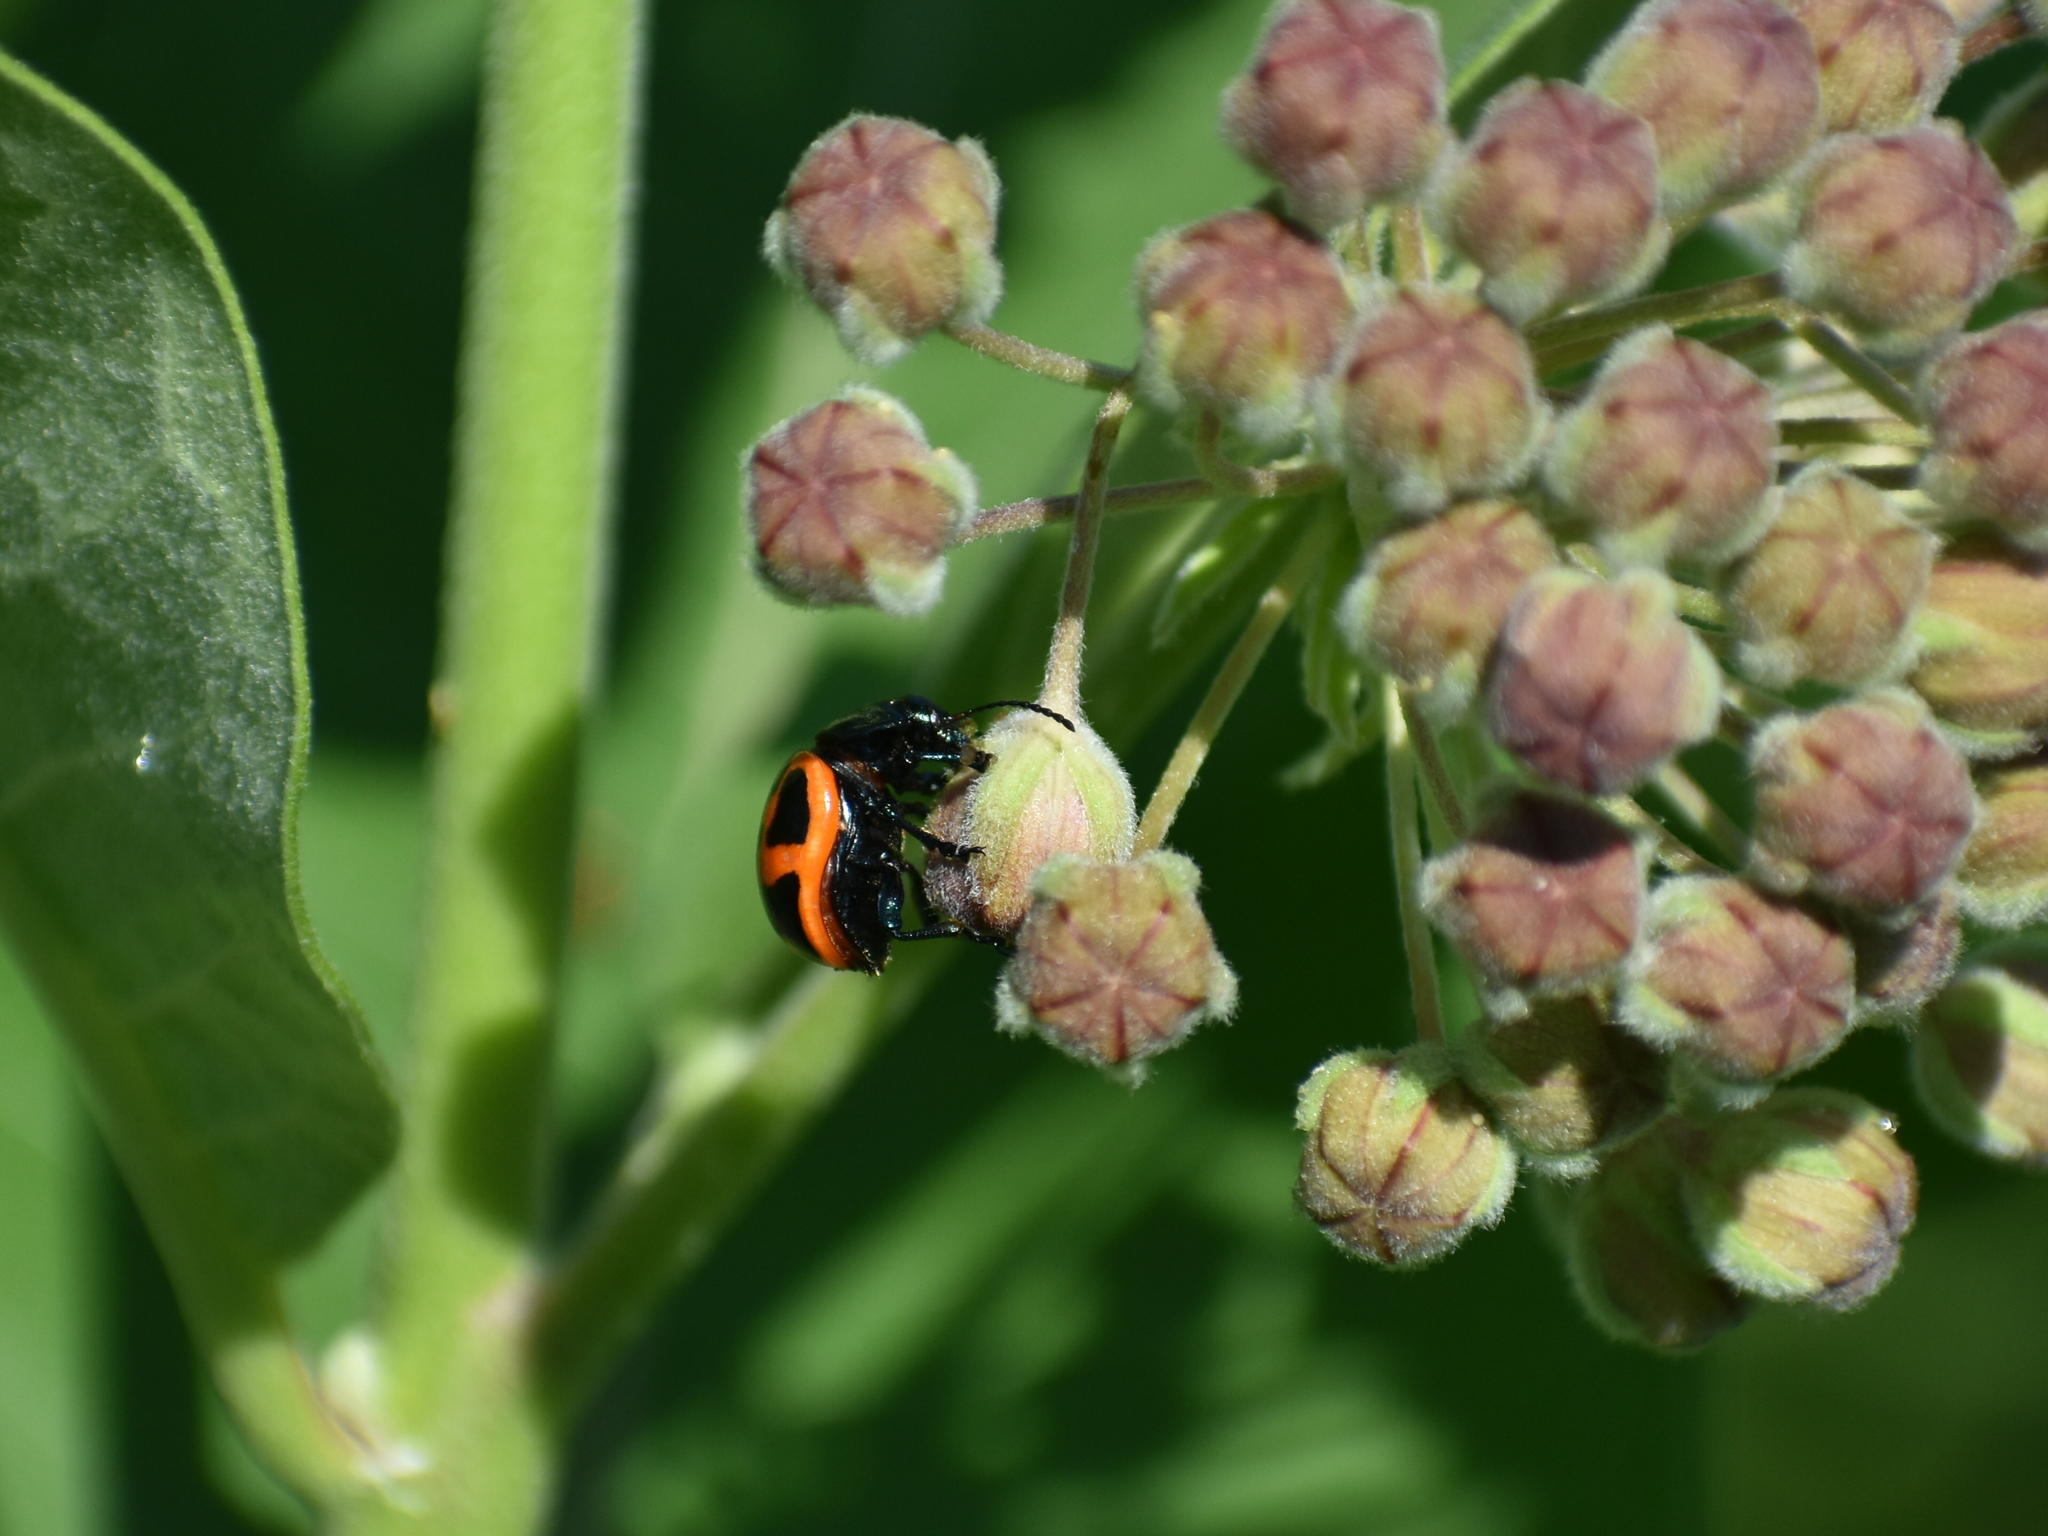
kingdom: Animalia
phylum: Arthropoda
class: Insecta
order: Coleoptera
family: Chrysomelidae
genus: Labidomera
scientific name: Labidomera clivicollis
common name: Swamp milkweed leaf beetle
